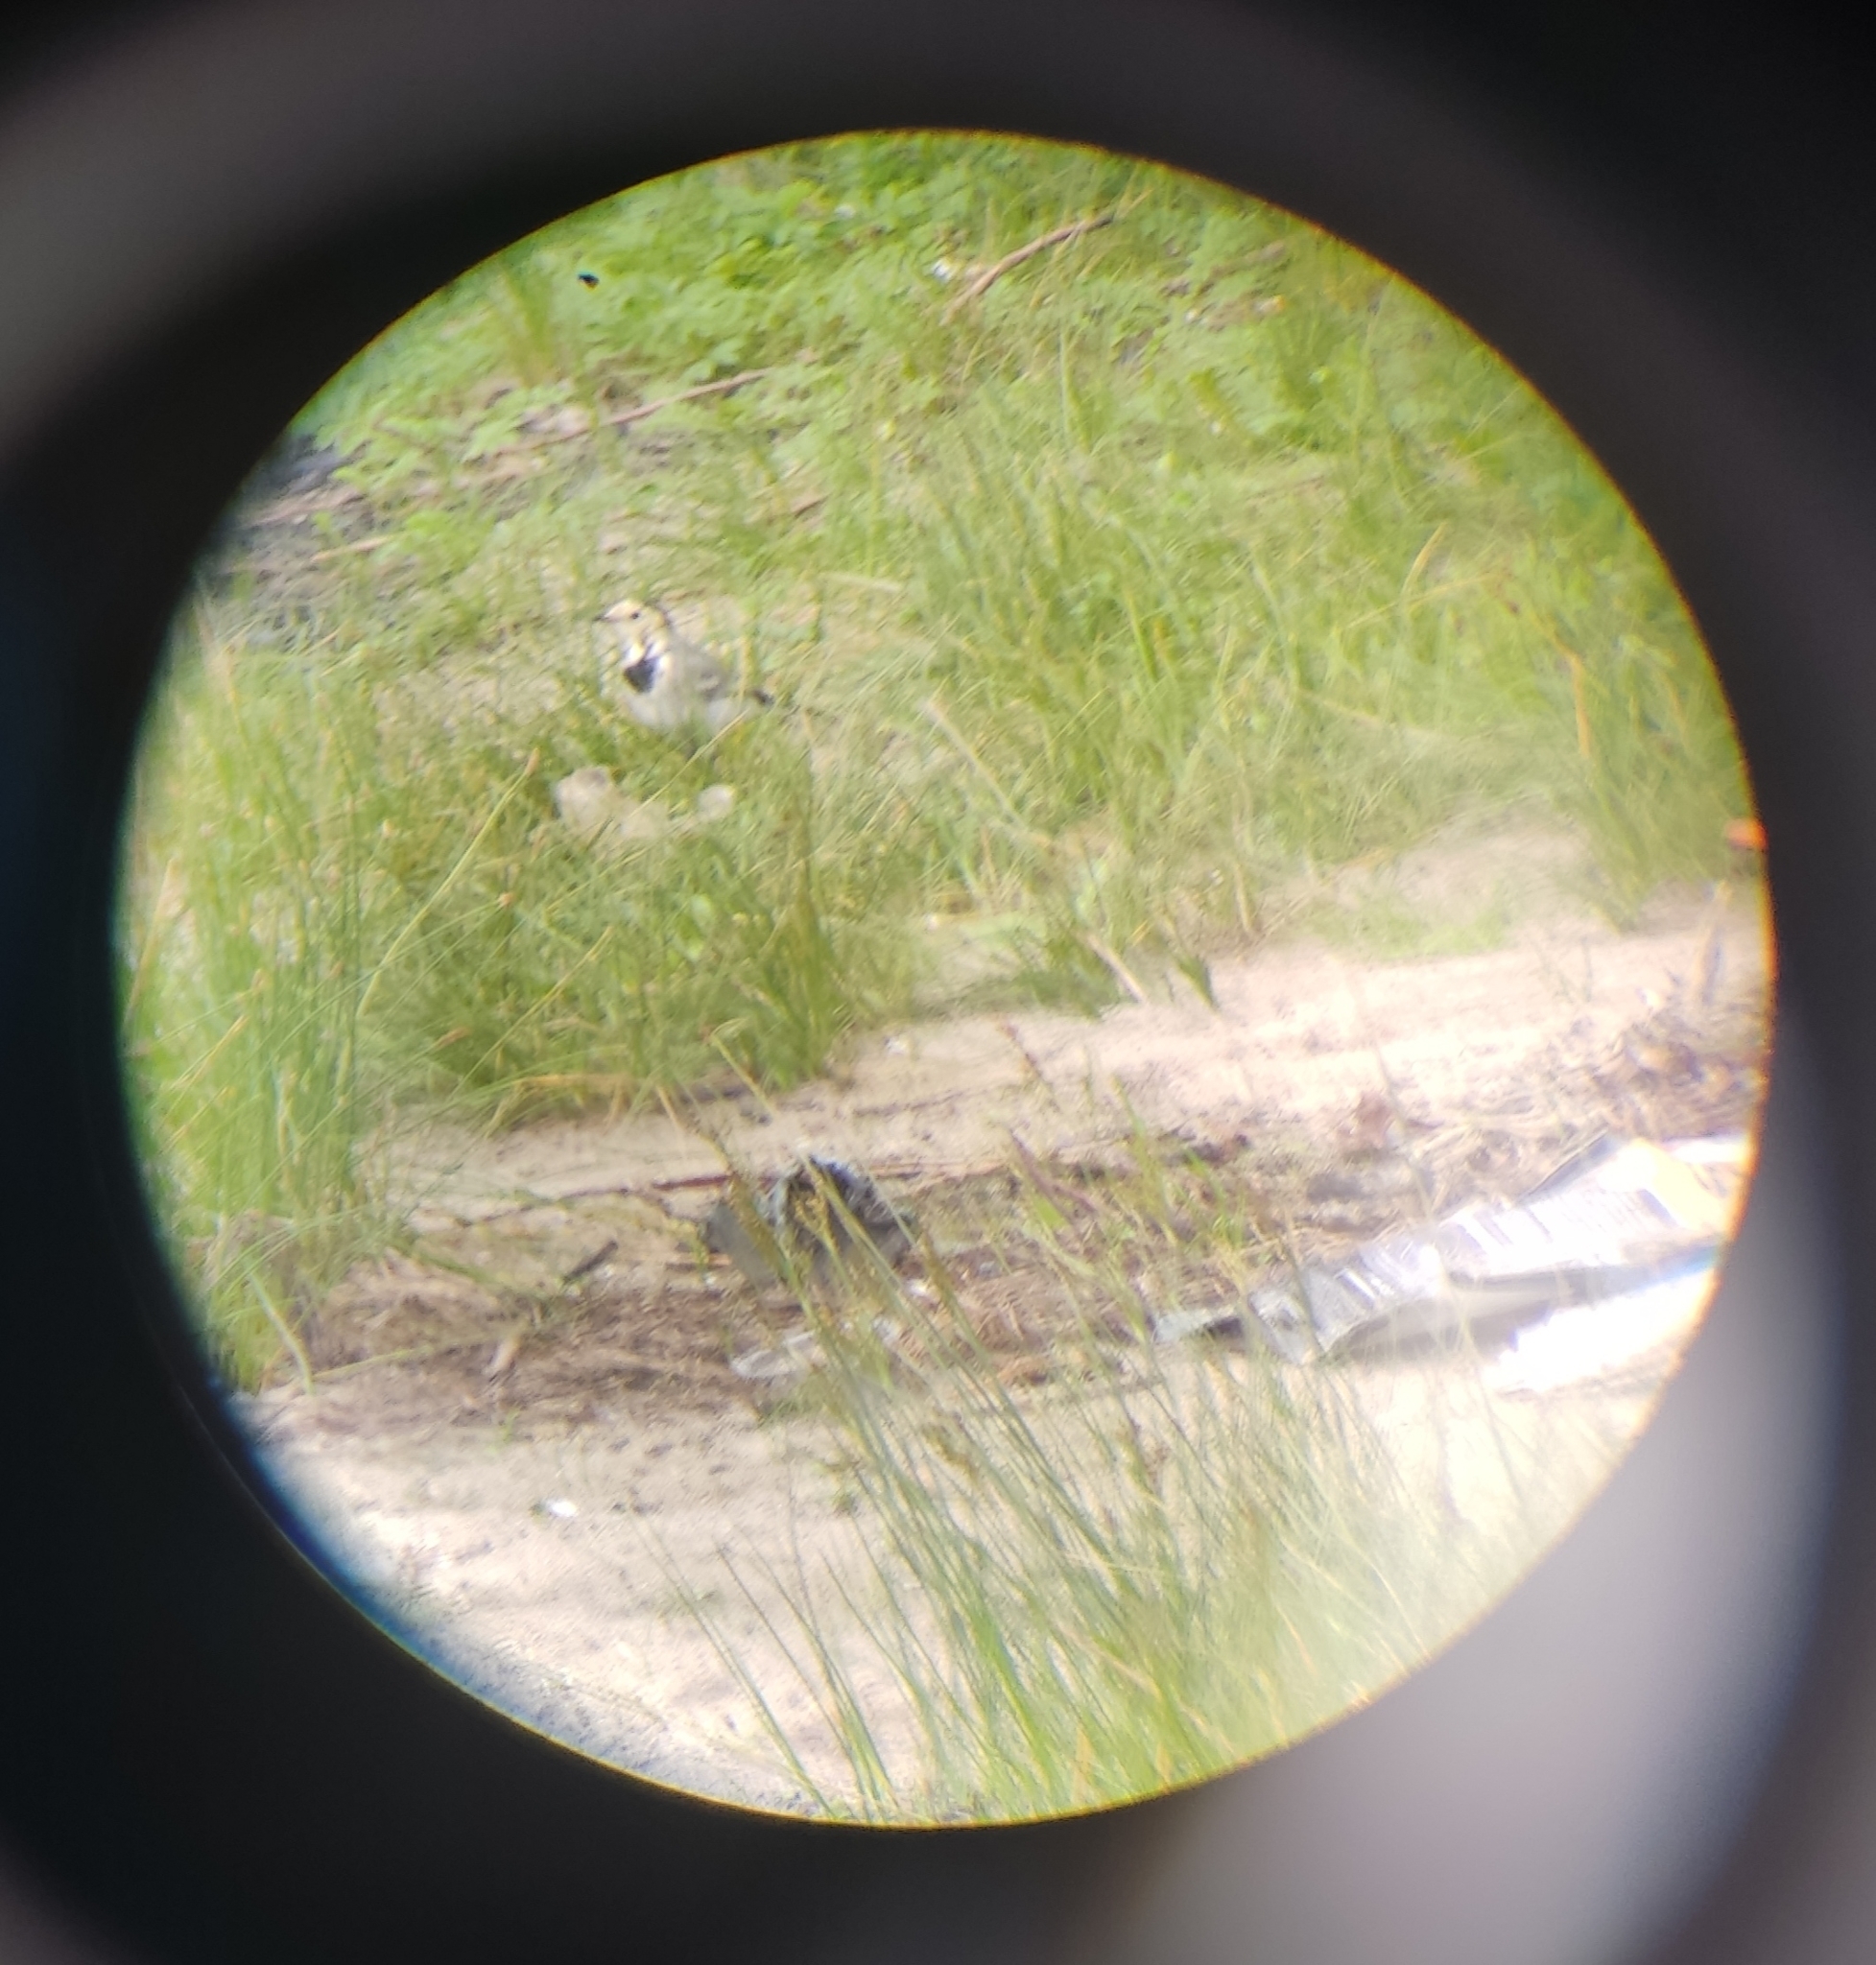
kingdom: Animalia
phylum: Chordata
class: Aves
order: Passeriformes
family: Motacillidae
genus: Motacilla
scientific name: Motacilla alba
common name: White wagtail
